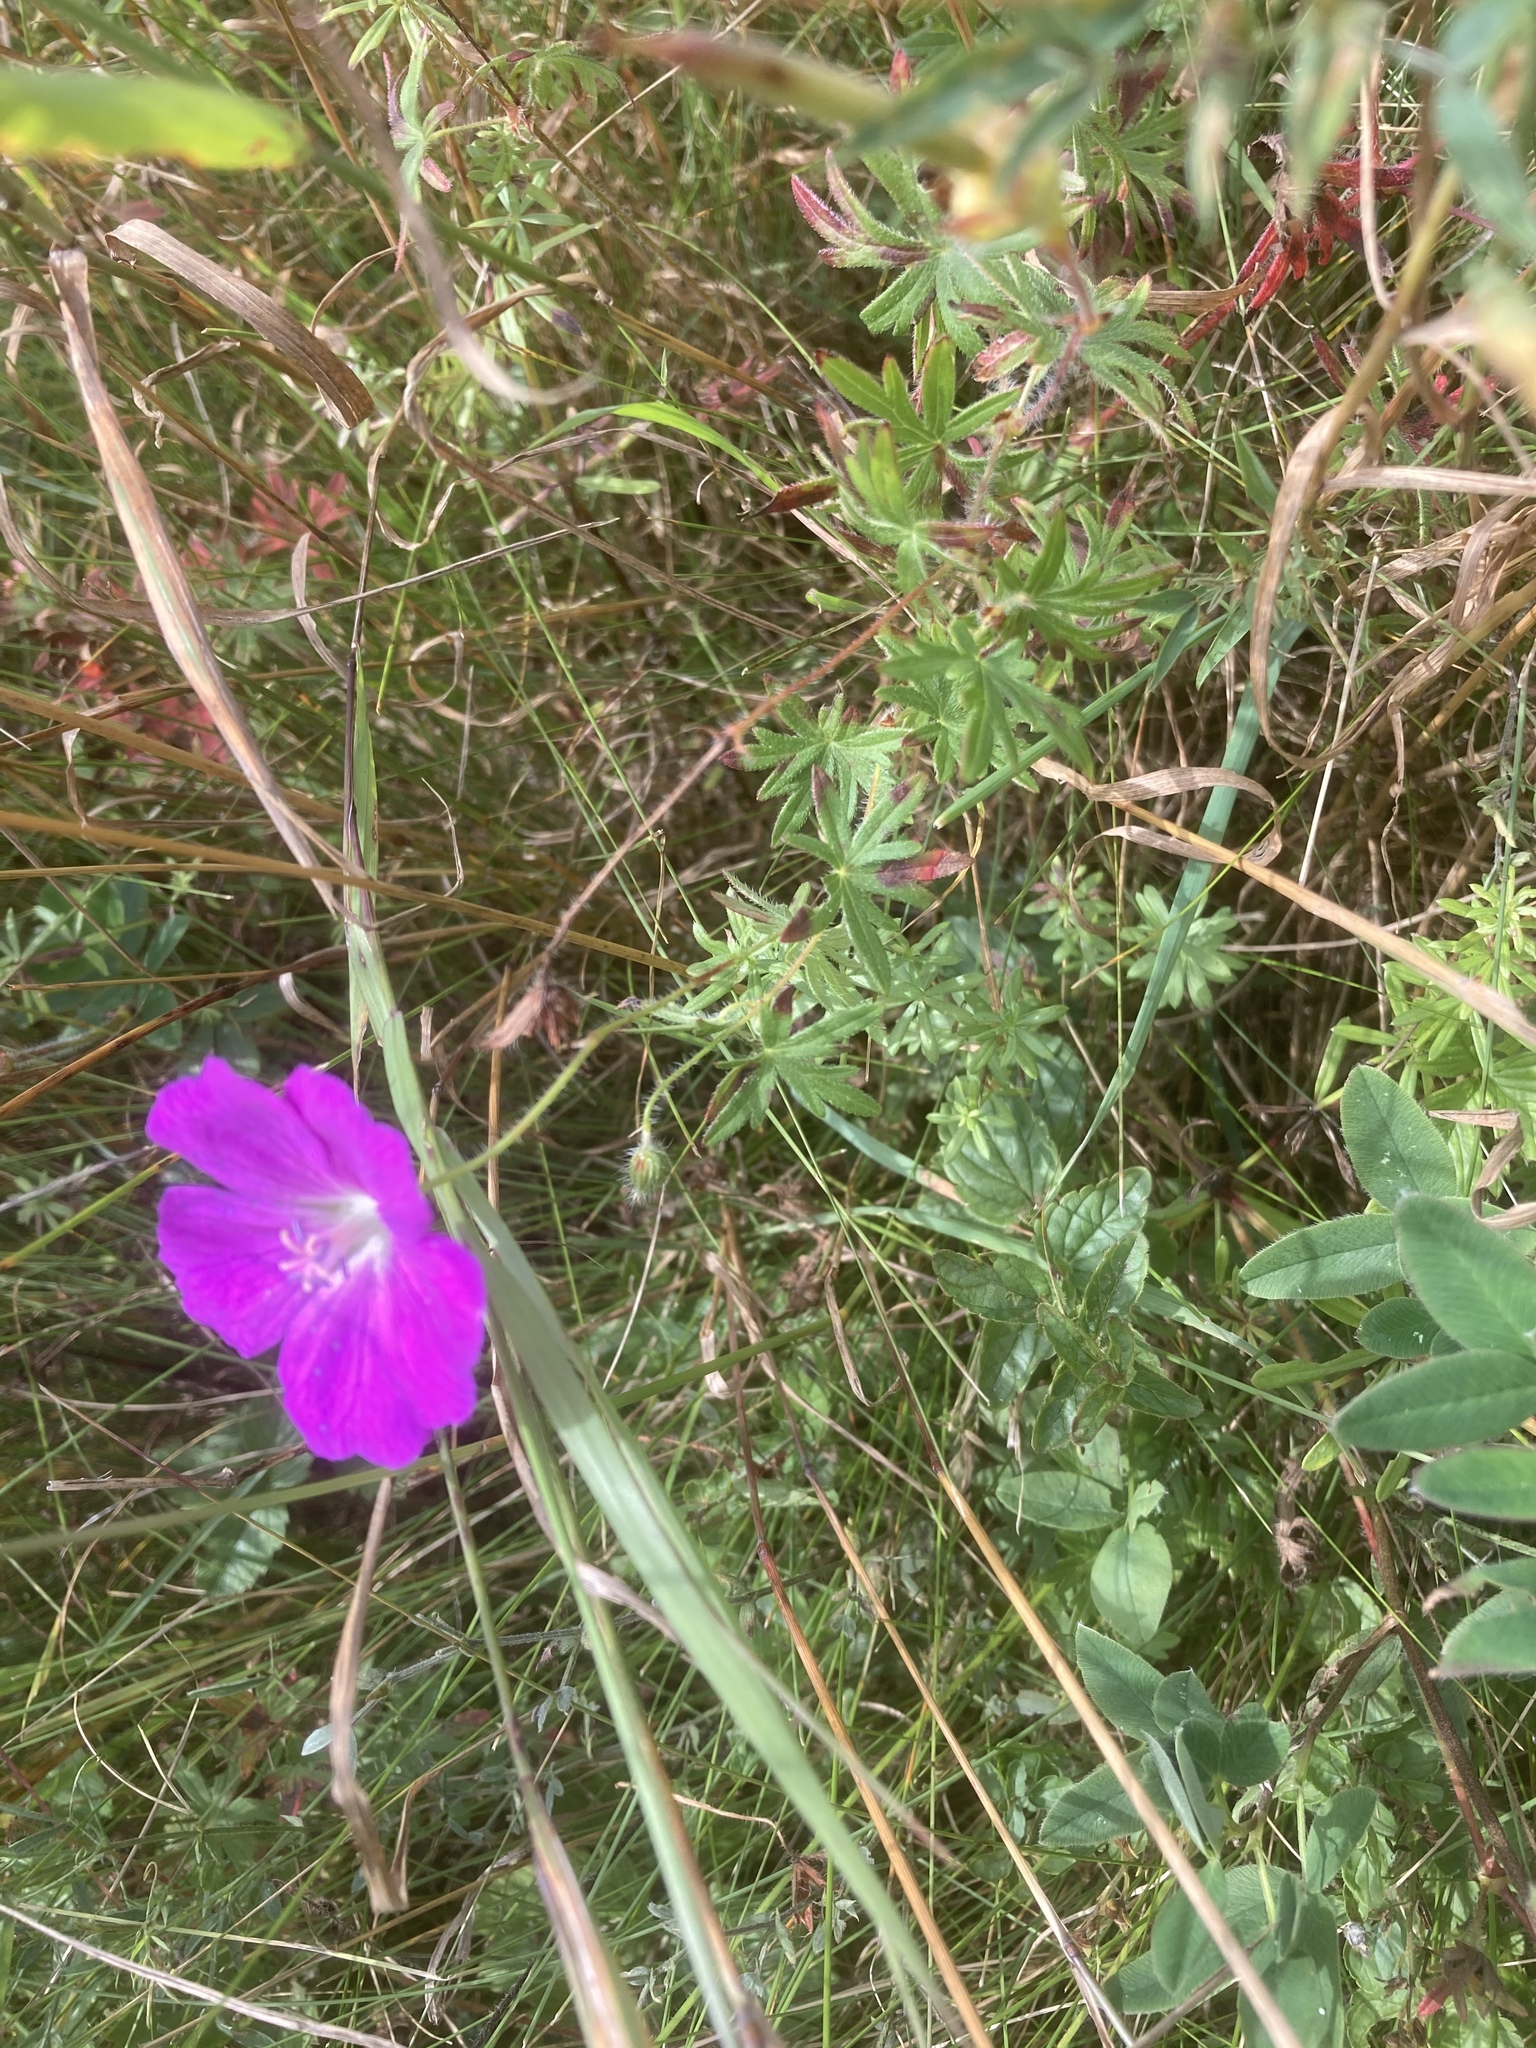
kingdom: Plantae
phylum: Tracheophyta
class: Magnoliopsida
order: Geraniales
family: Geraniaceae
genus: Geranium
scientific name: Geranium sanguineum
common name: Bloody crane's-bill
